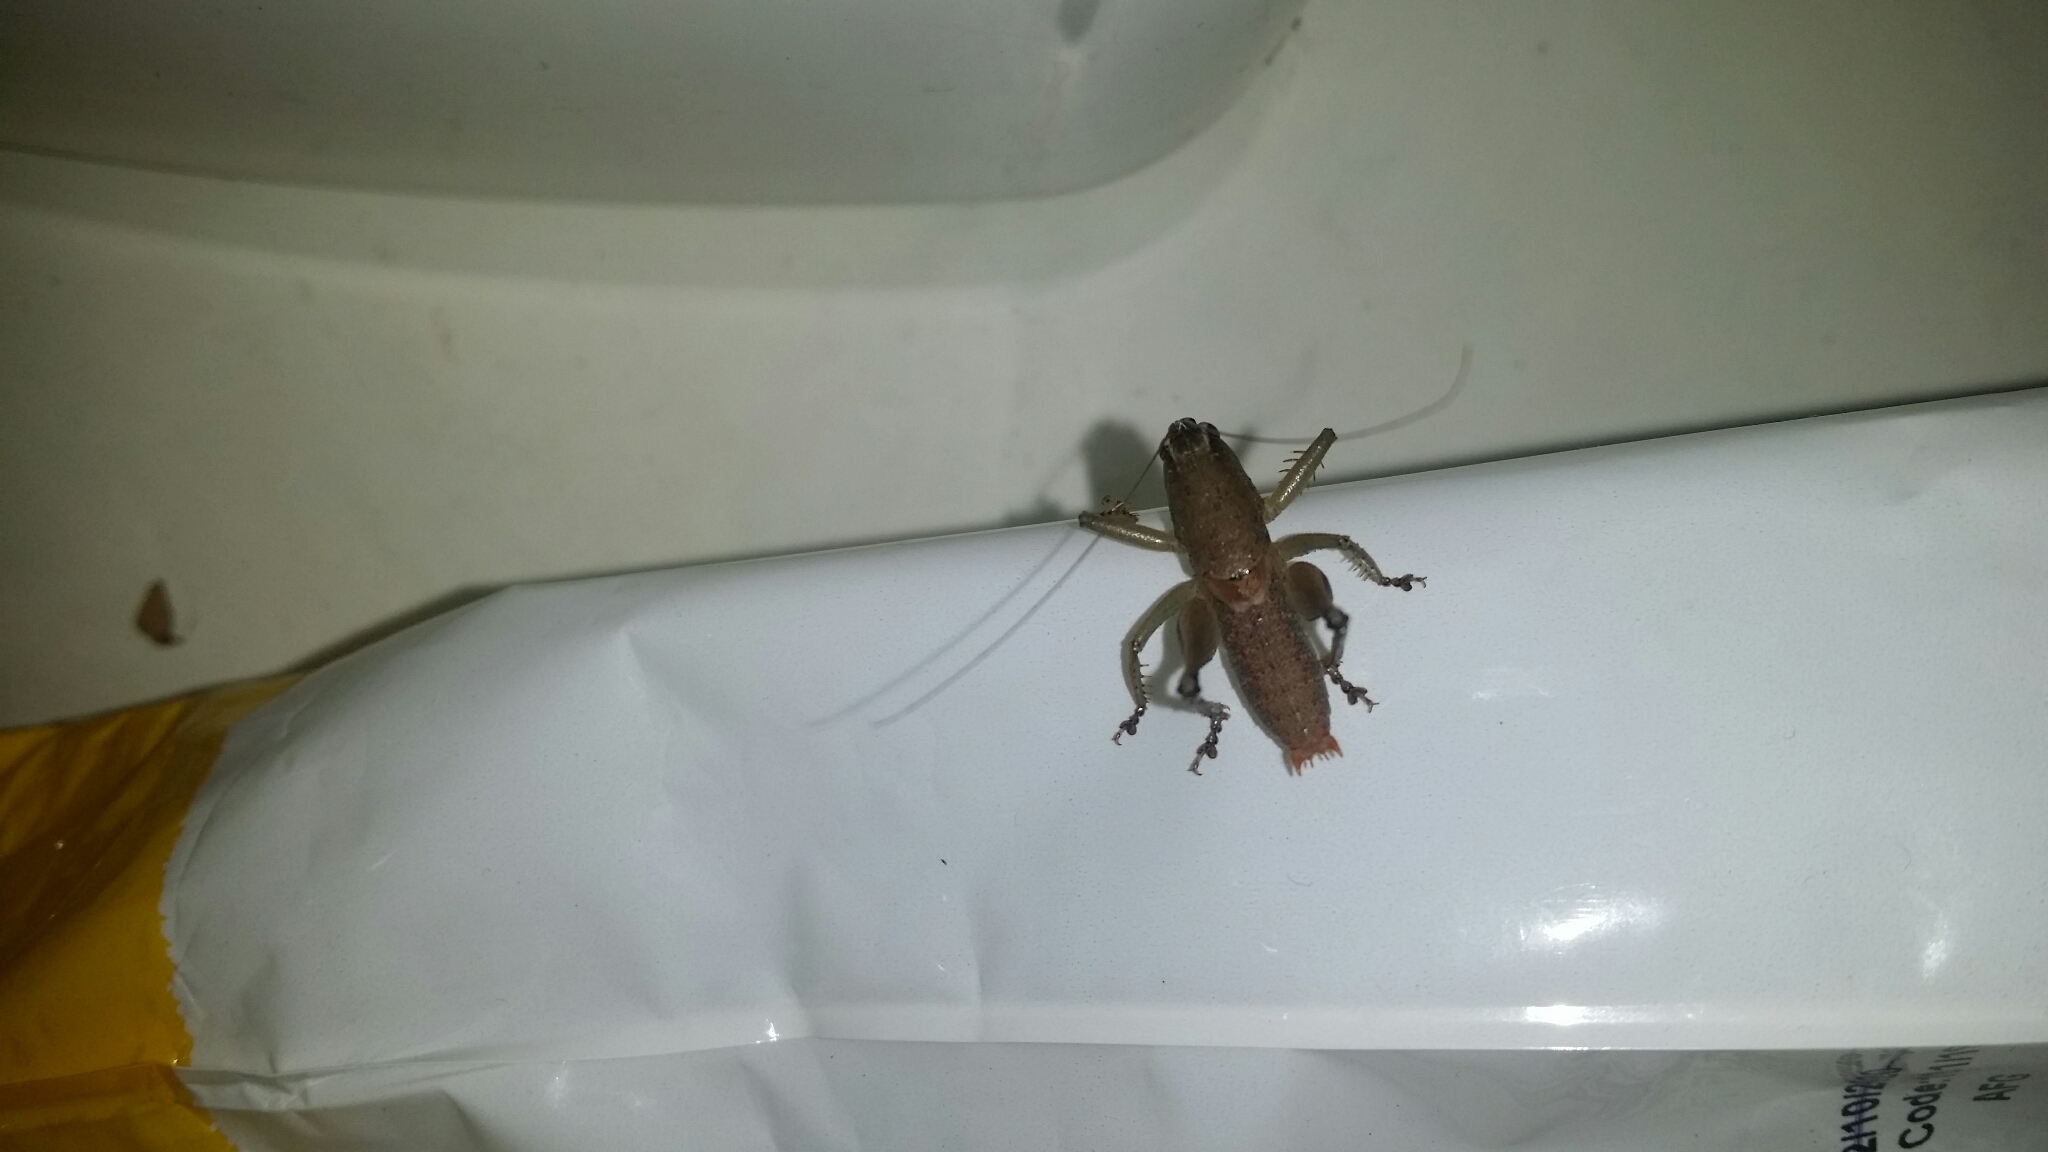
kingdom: Animalia
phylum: Arthropoda
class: Insecta
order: Orthoptera
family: Tettigoniidae
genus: Requena
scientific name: Requena verticalis
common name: Common western requena
